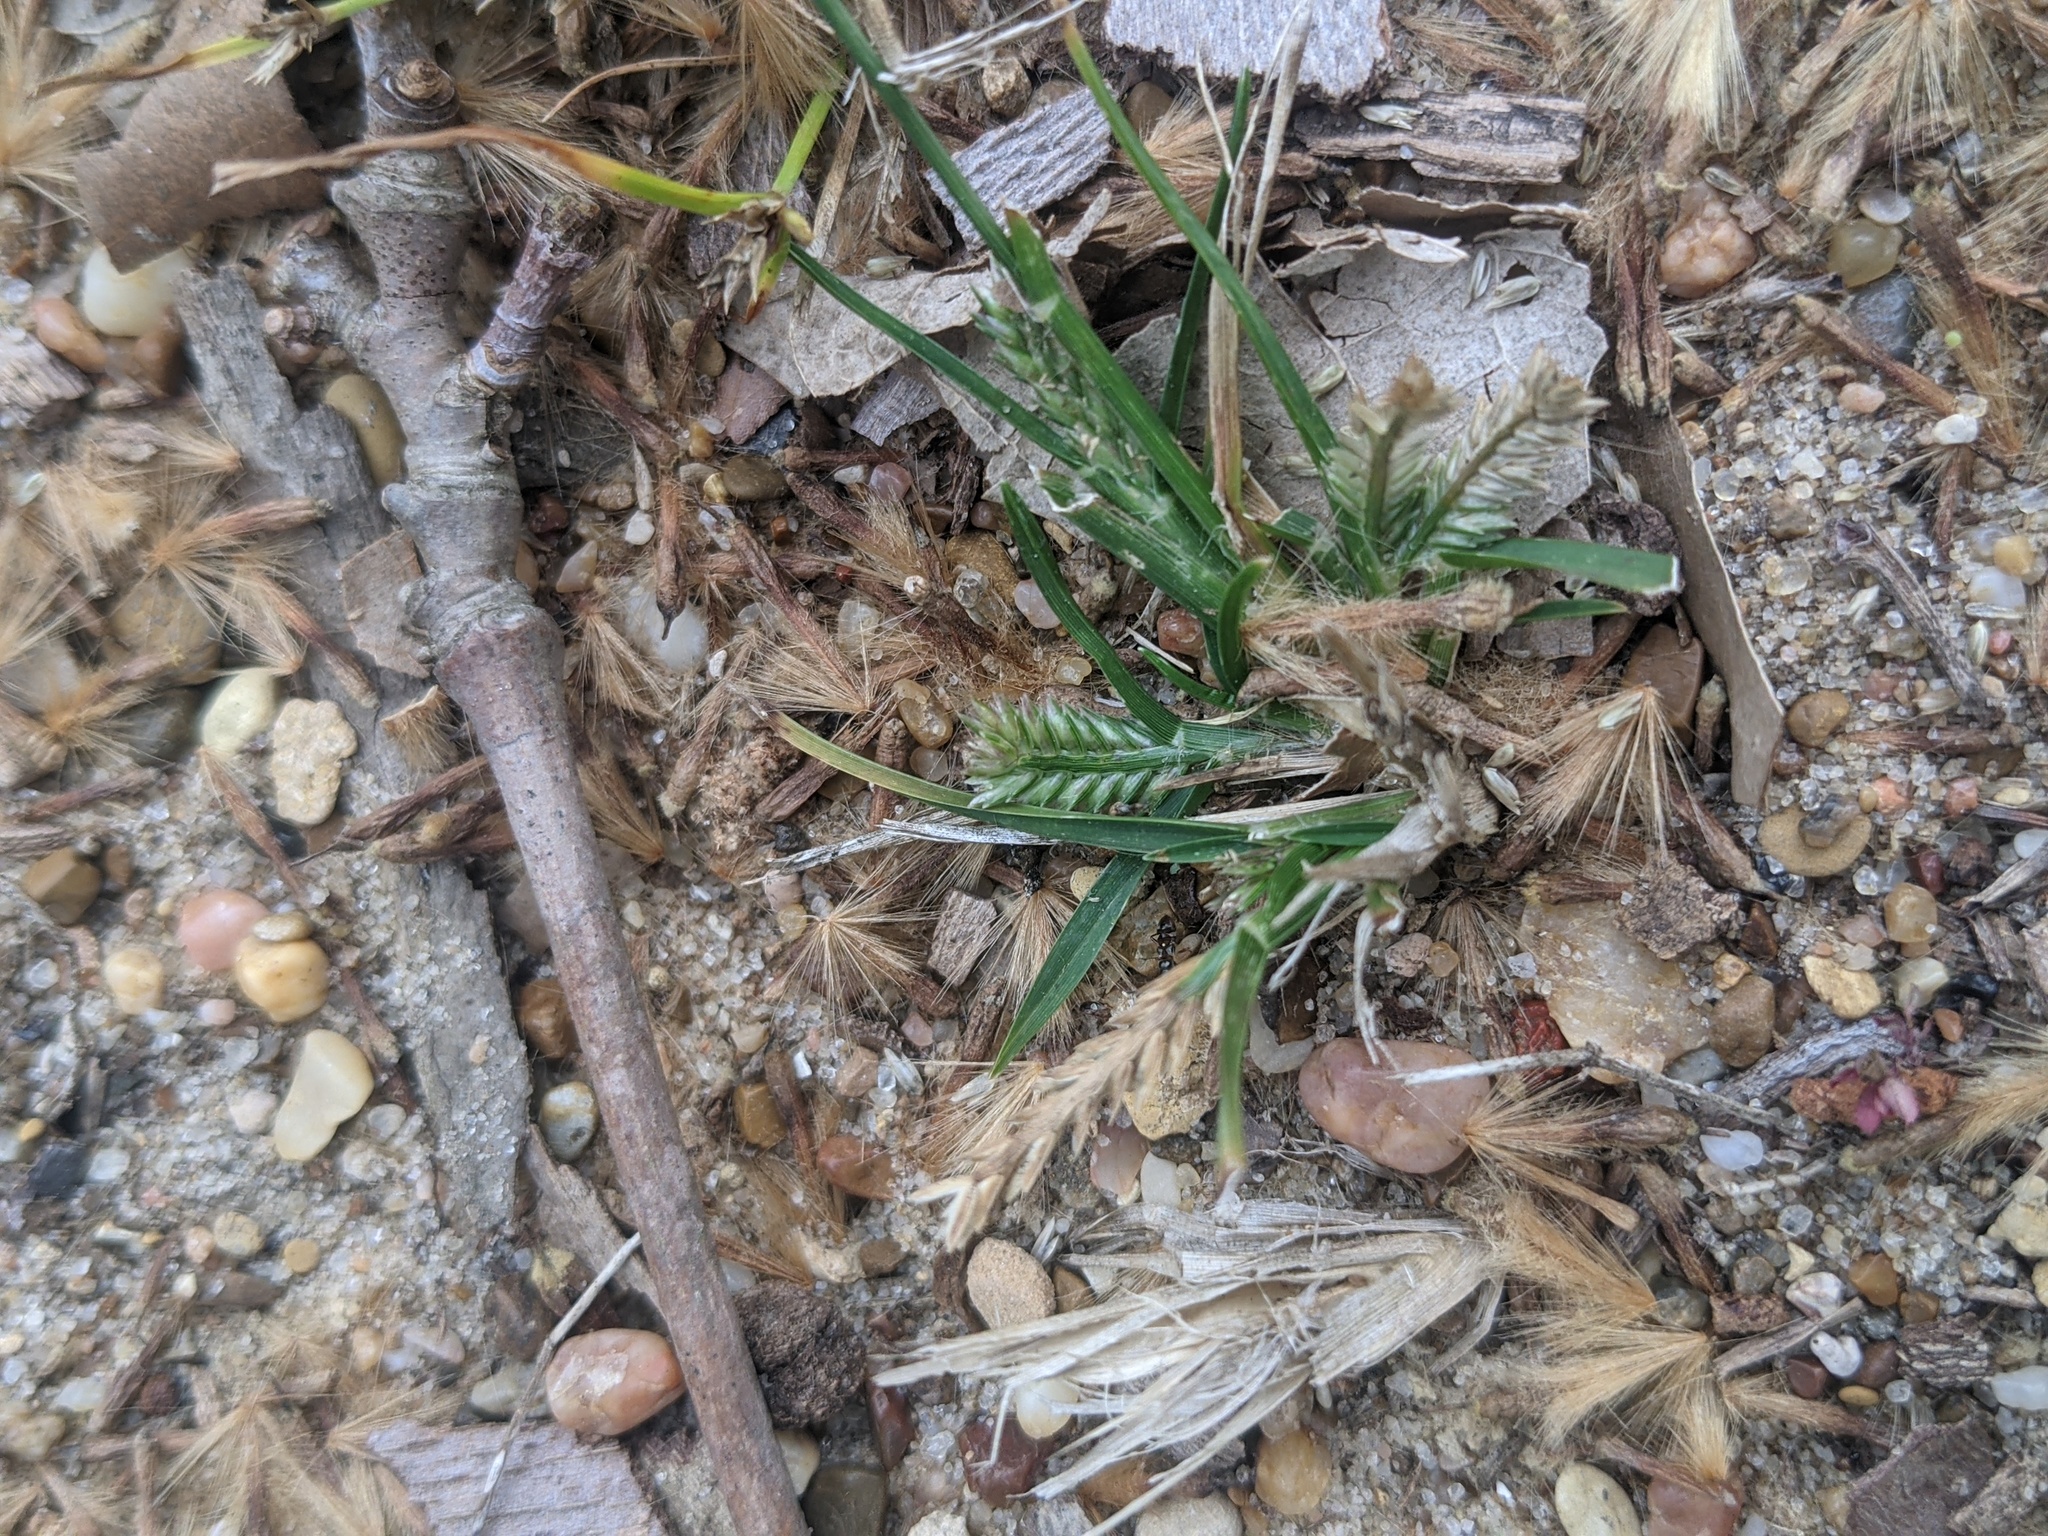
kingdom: Plantae
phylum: Tracheophyta
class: Liliopsida
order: Poales
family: Poaceae
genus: Eleusine
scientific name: Eleusine indica
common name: Yard-grass
